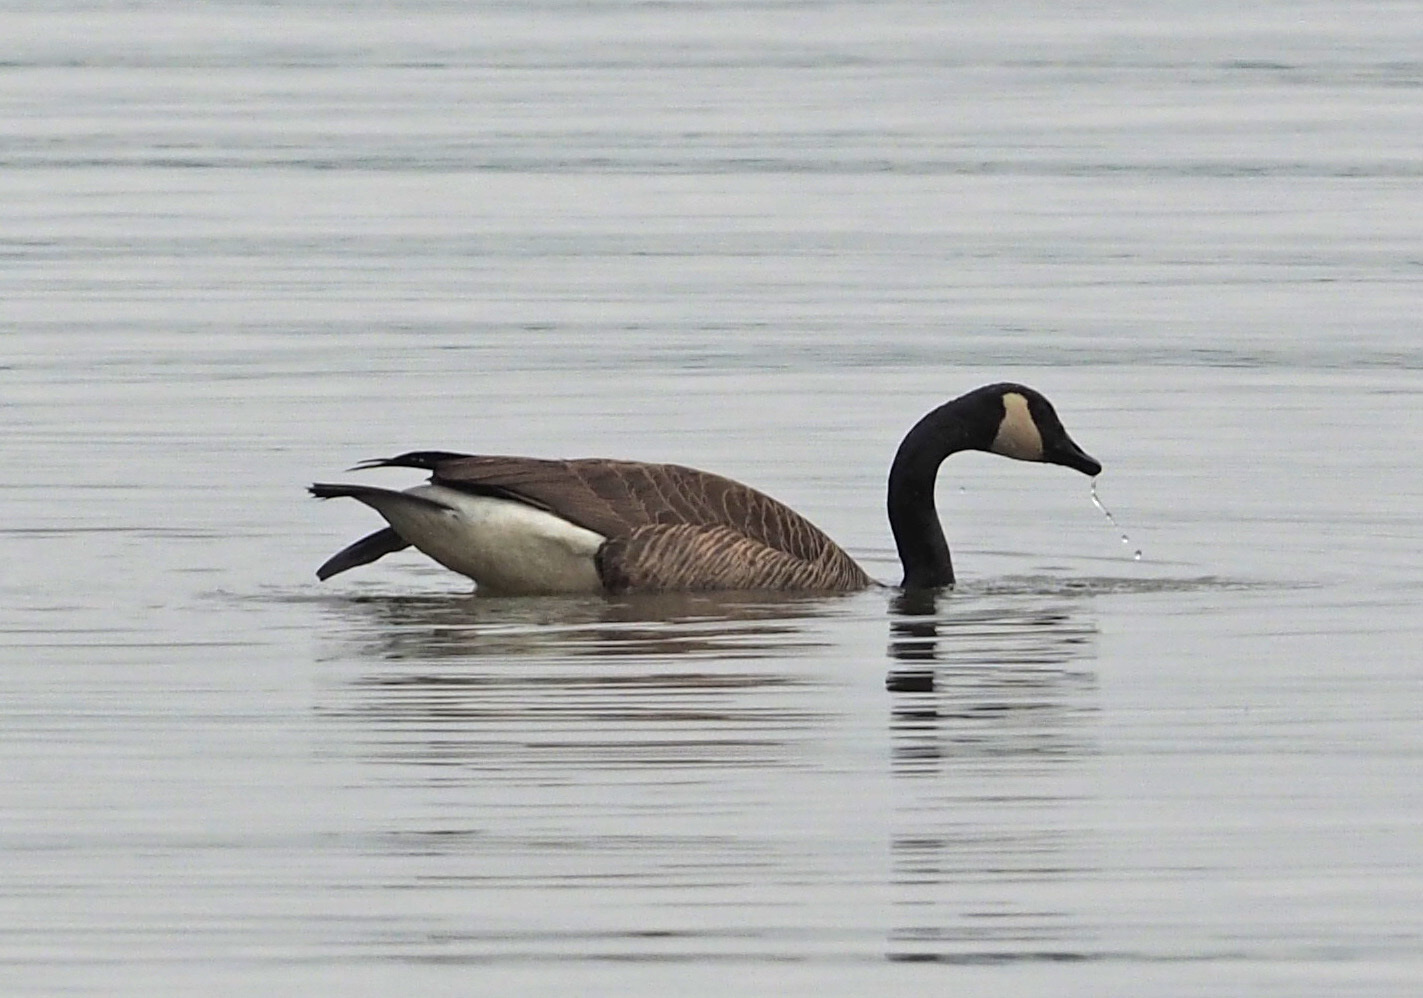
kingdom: Animalia
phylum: Chordata
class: Aves
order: Anseriformes
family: Anatidae
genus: Branta
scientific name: Branta canadensis
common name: Canada goose
